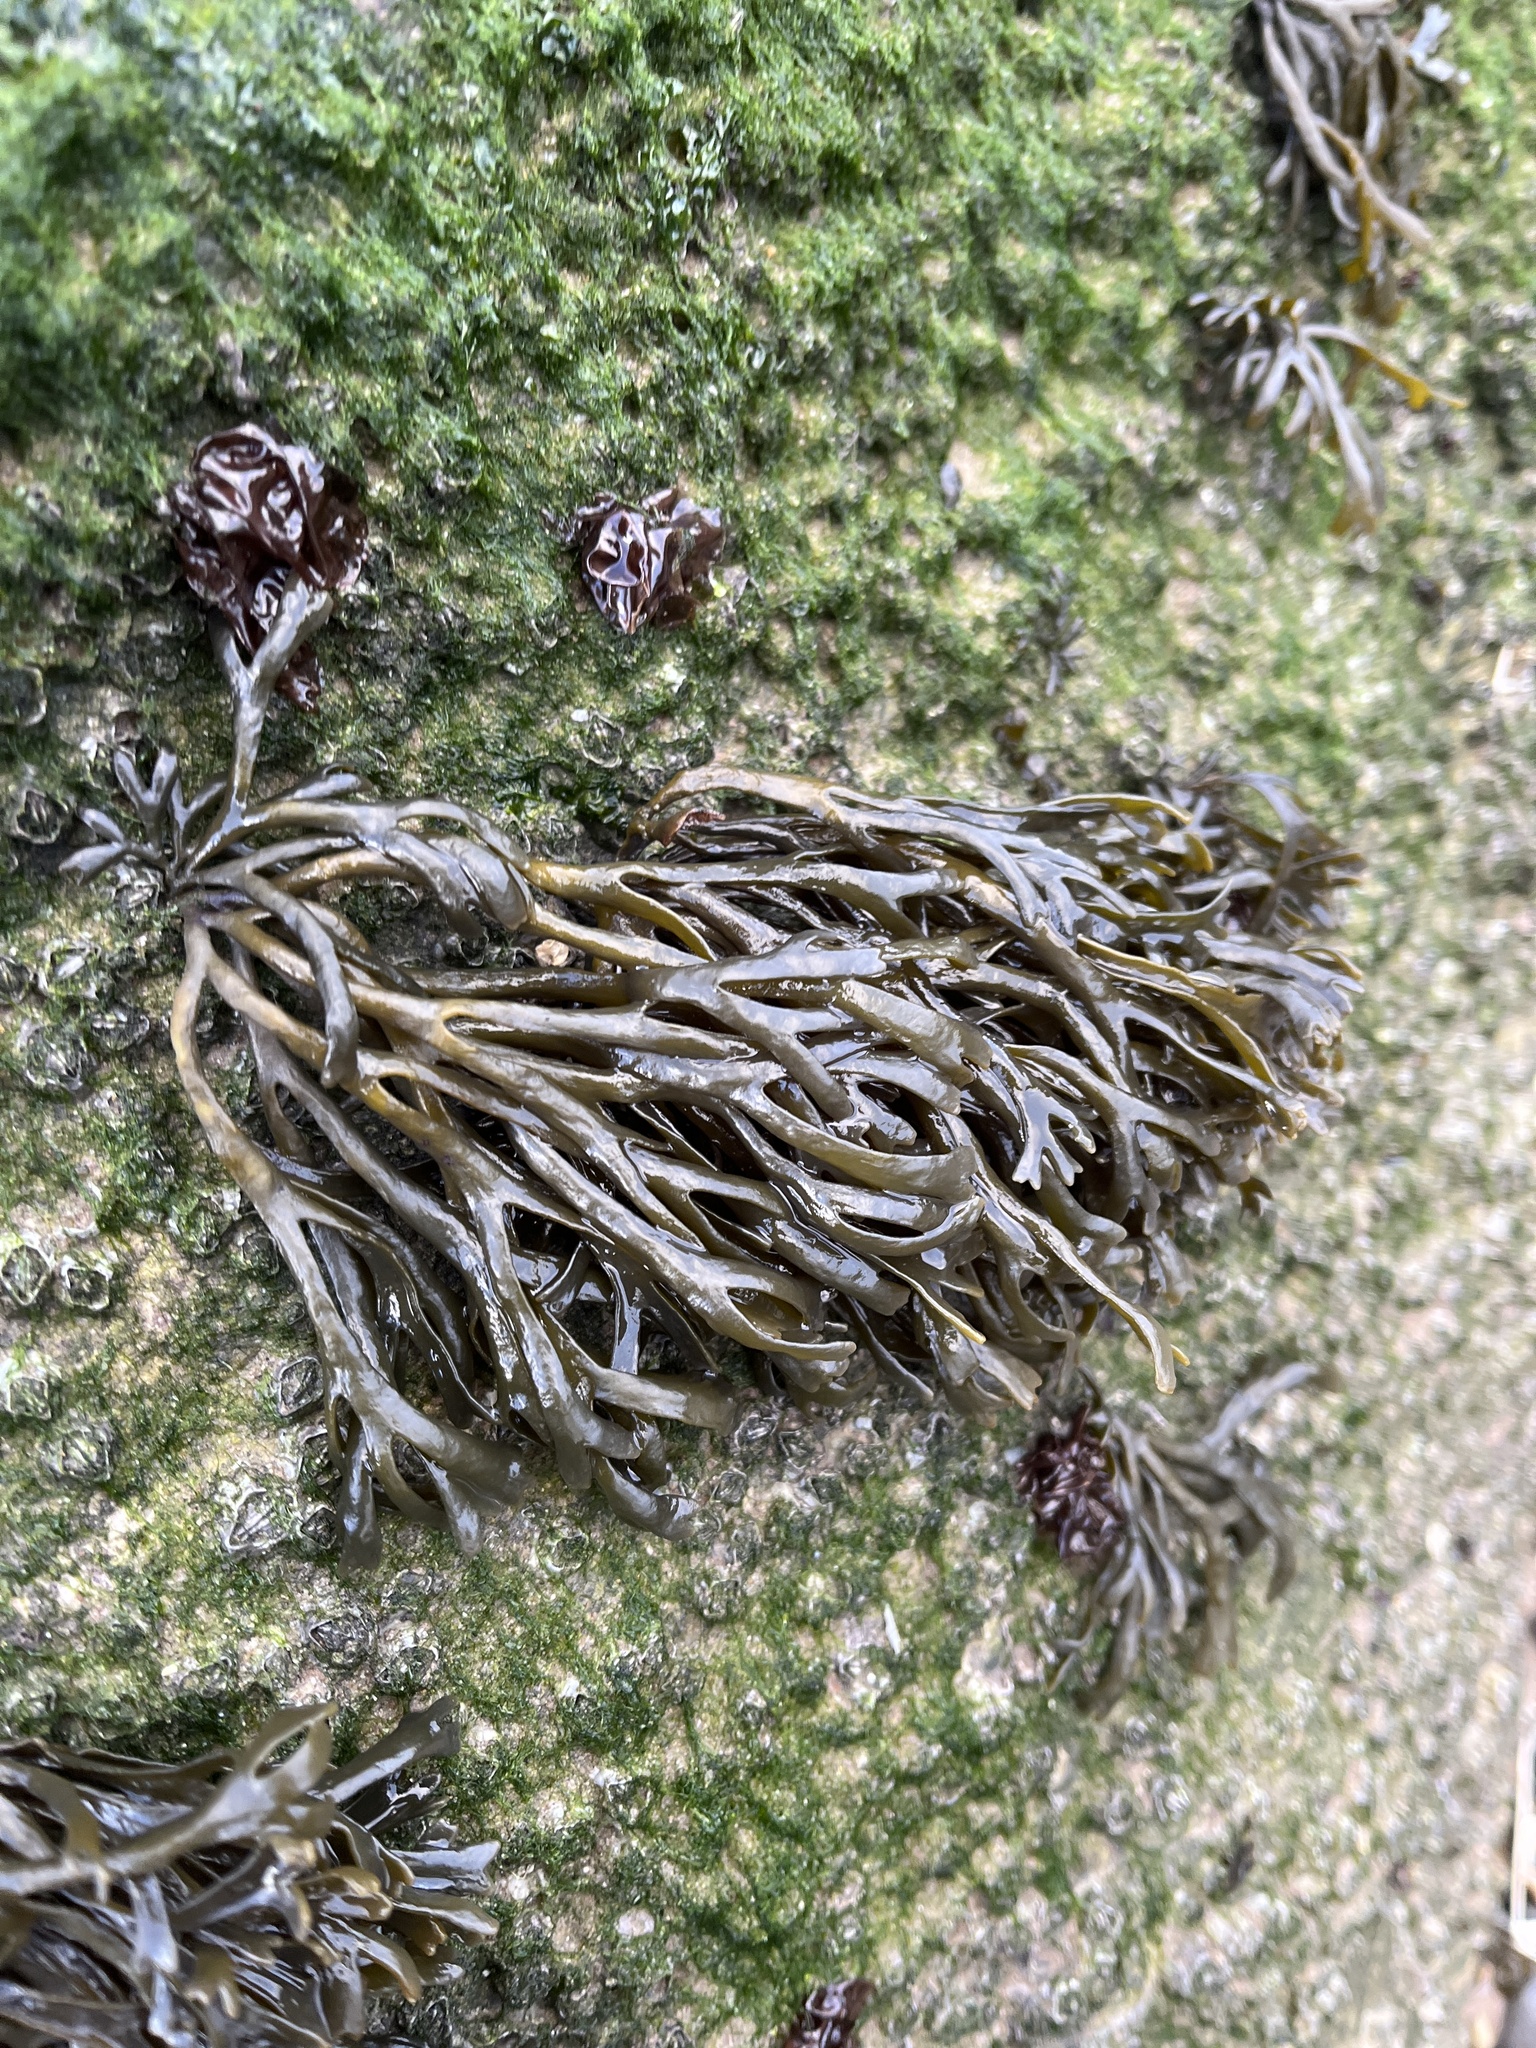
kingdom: Chromista
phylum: Ochrophyta
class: Phaeophyceae
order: Fucales
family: Fucaceae
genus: Pelvetia
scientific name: Pelvetia canaliculata
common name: Channelled wrack
